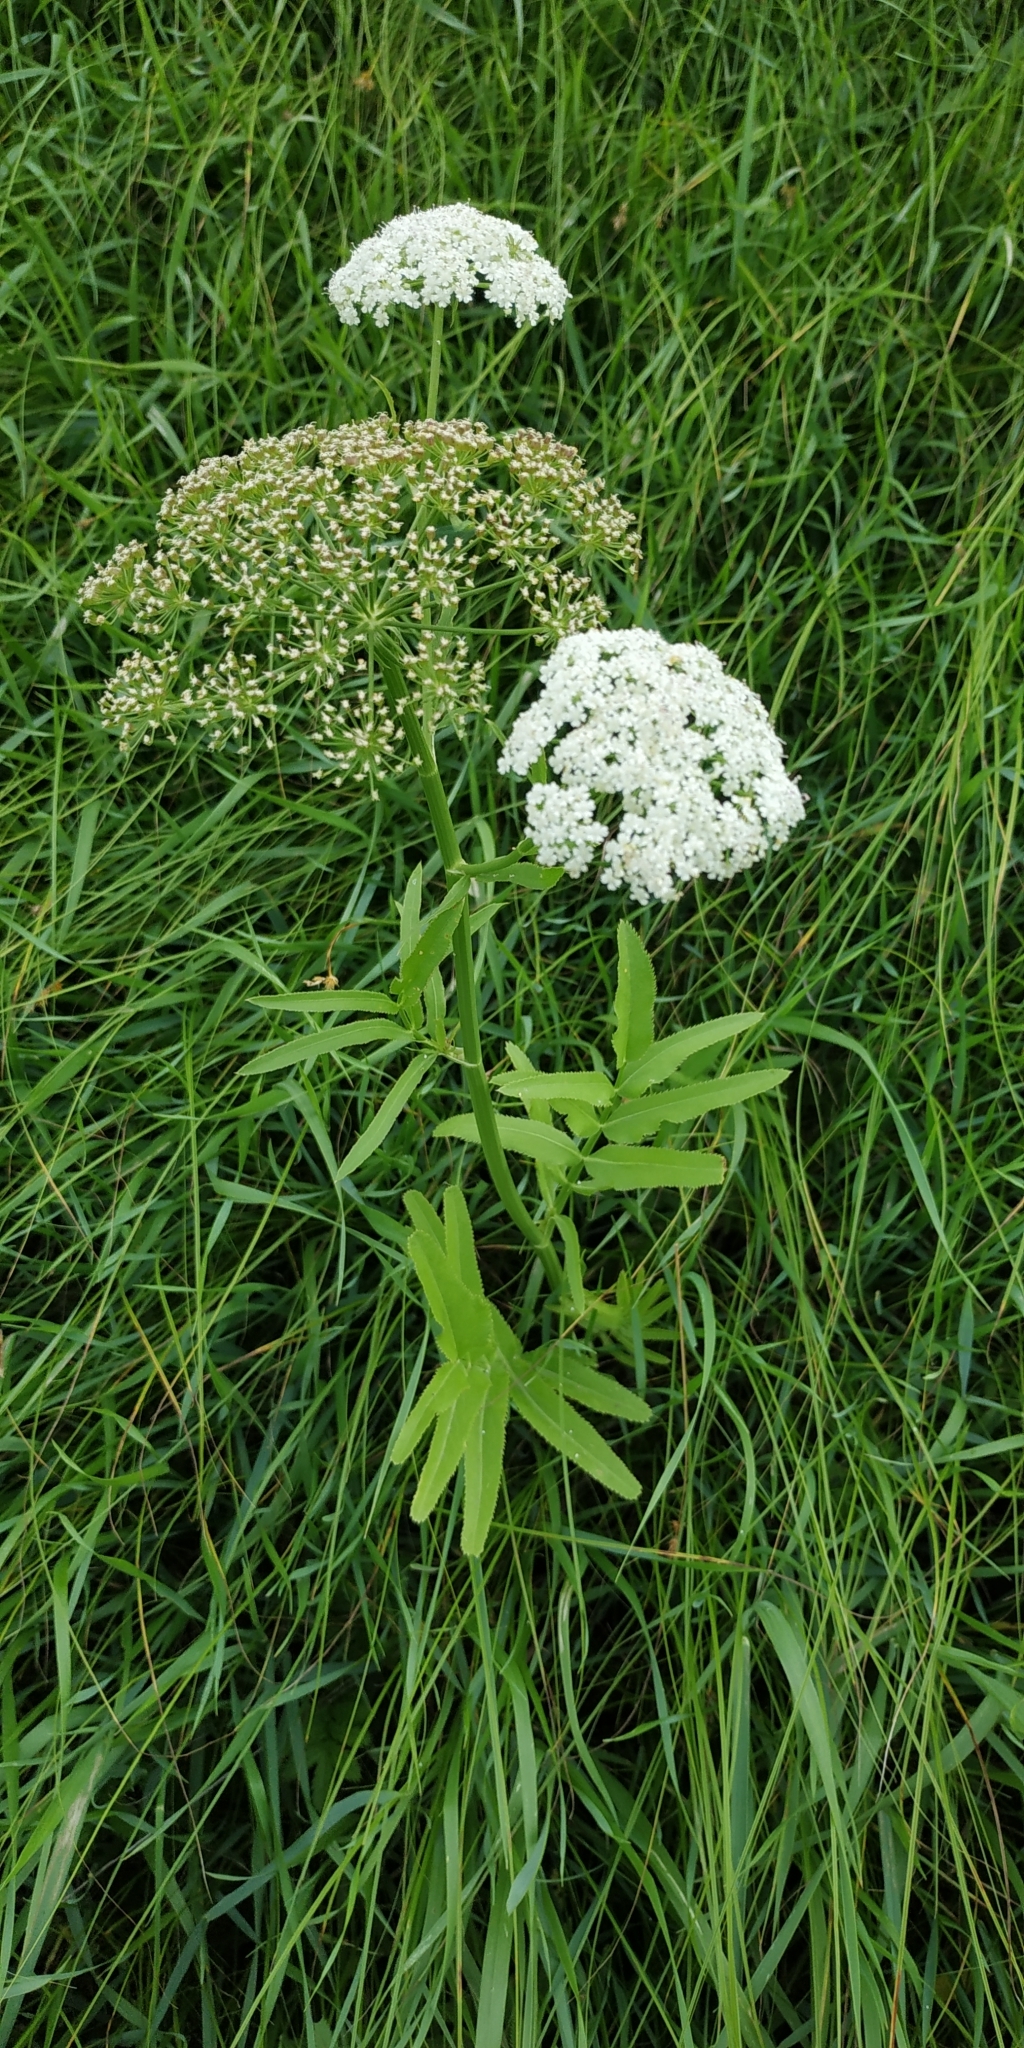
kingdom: Plantae
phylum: Tracheophyta
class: Magnoliopsida
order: Apiales
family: Apiaceae
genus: Sium
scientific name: Sium latifolium
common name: Greater water-parsnip
